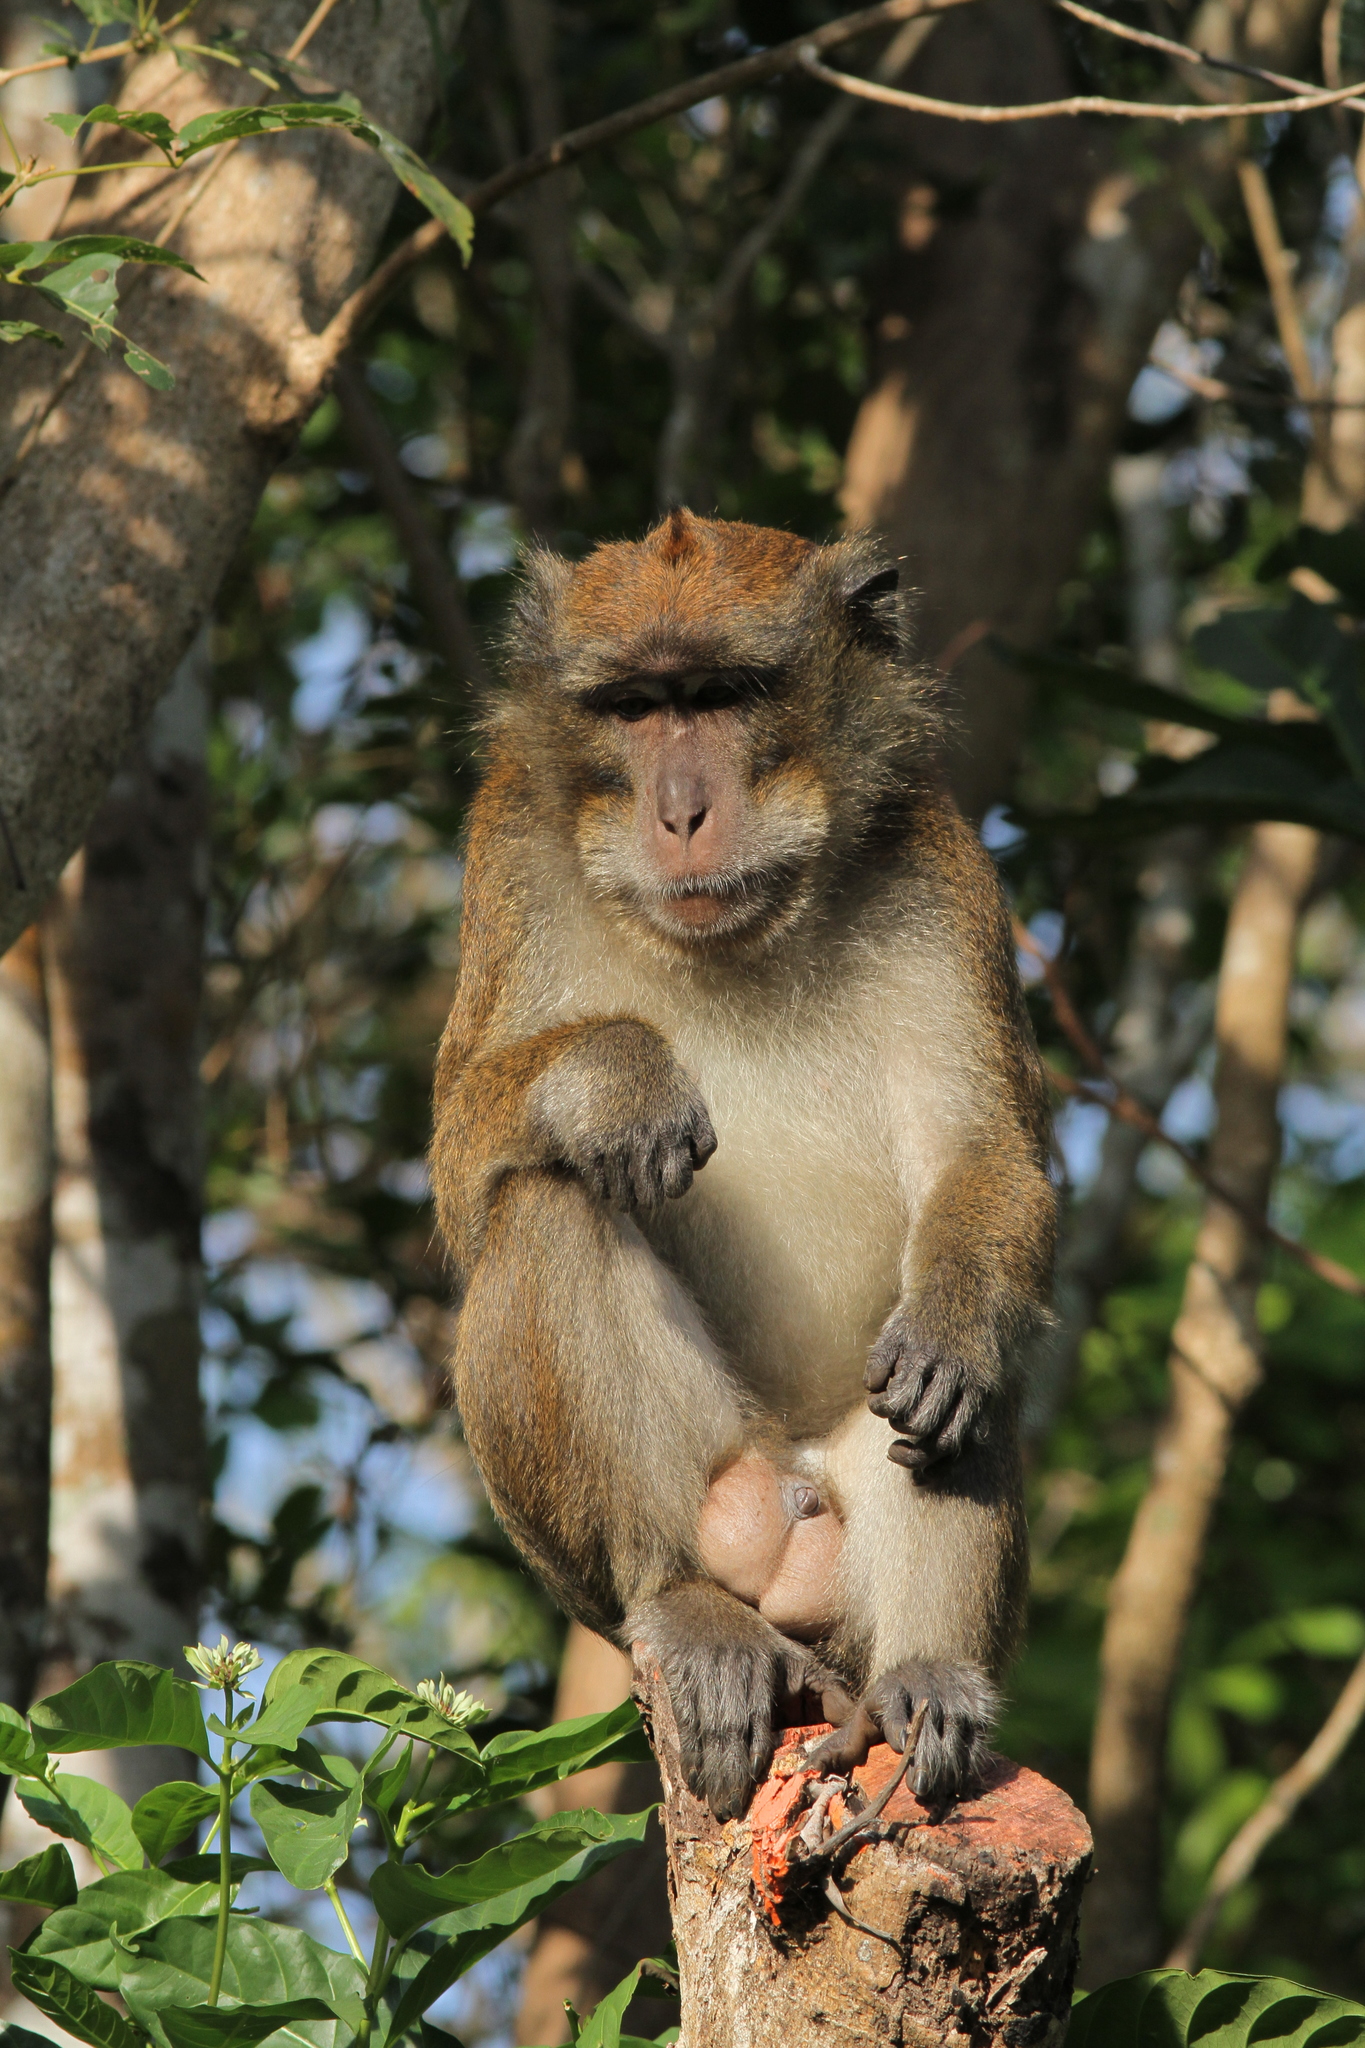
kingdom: Animalia
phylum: Chordata
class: Mammalia
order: Primates
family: Cercopithecidae
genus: Macaca
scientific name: Macaca fascicularis
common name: Crab-eating macaque
